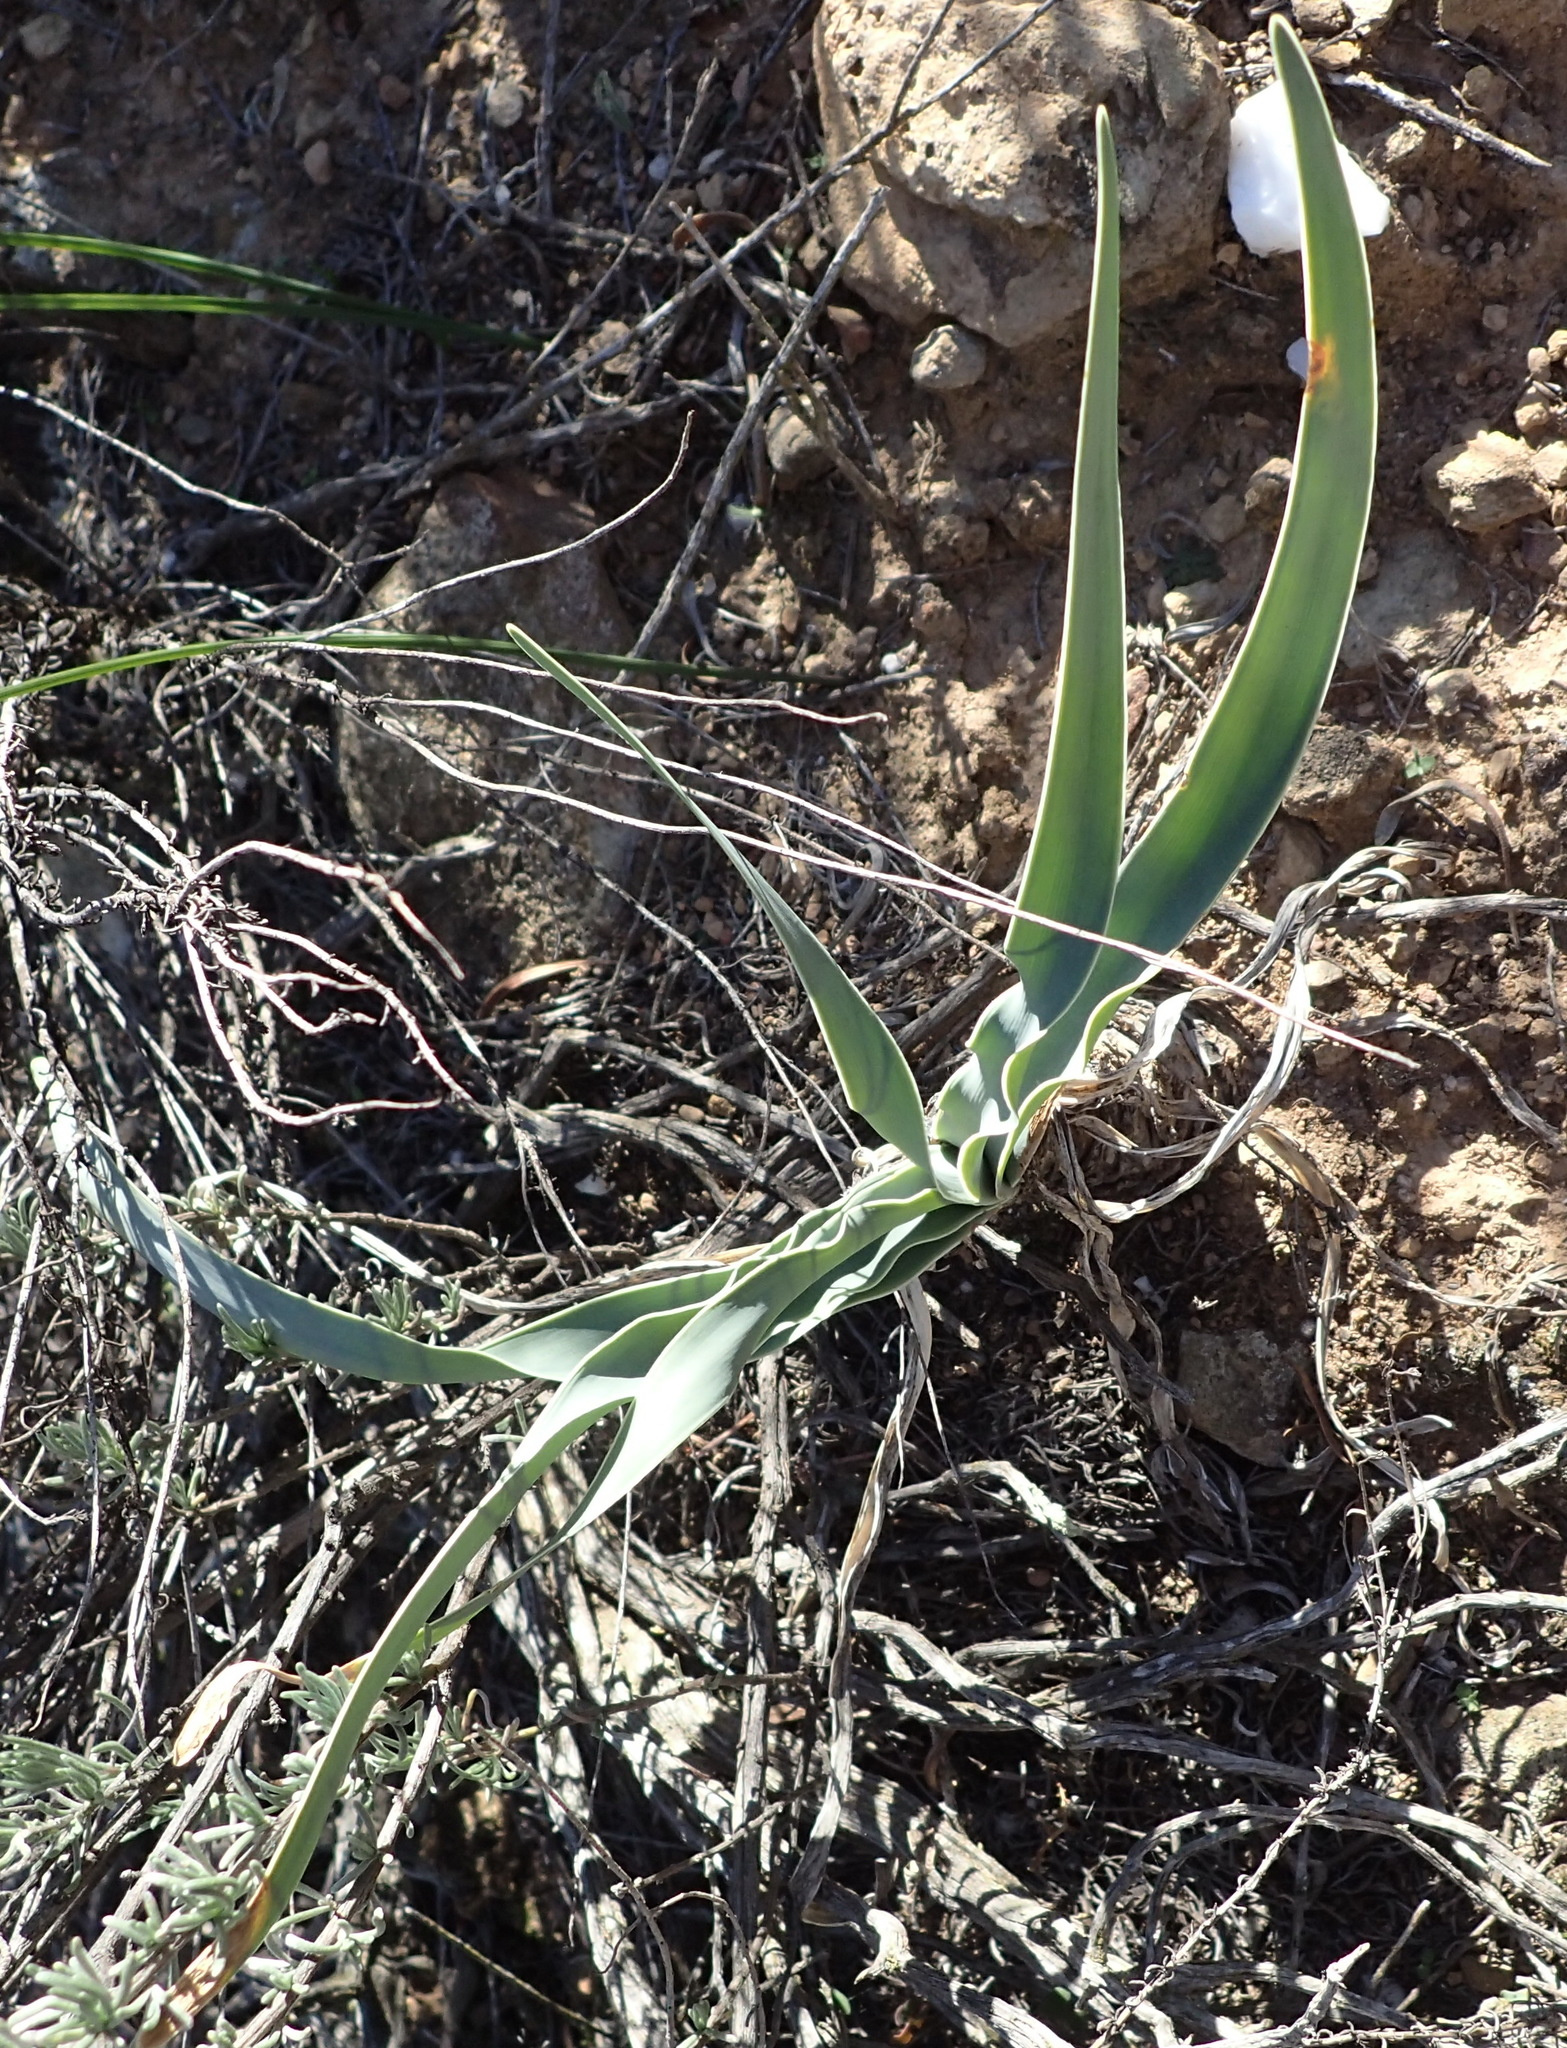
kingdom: Plantae
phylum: Tracheophyta
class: Liliopsida
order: Asparagales
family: Amaryllidaceae
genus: Boophone
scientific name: Boophone disticha
